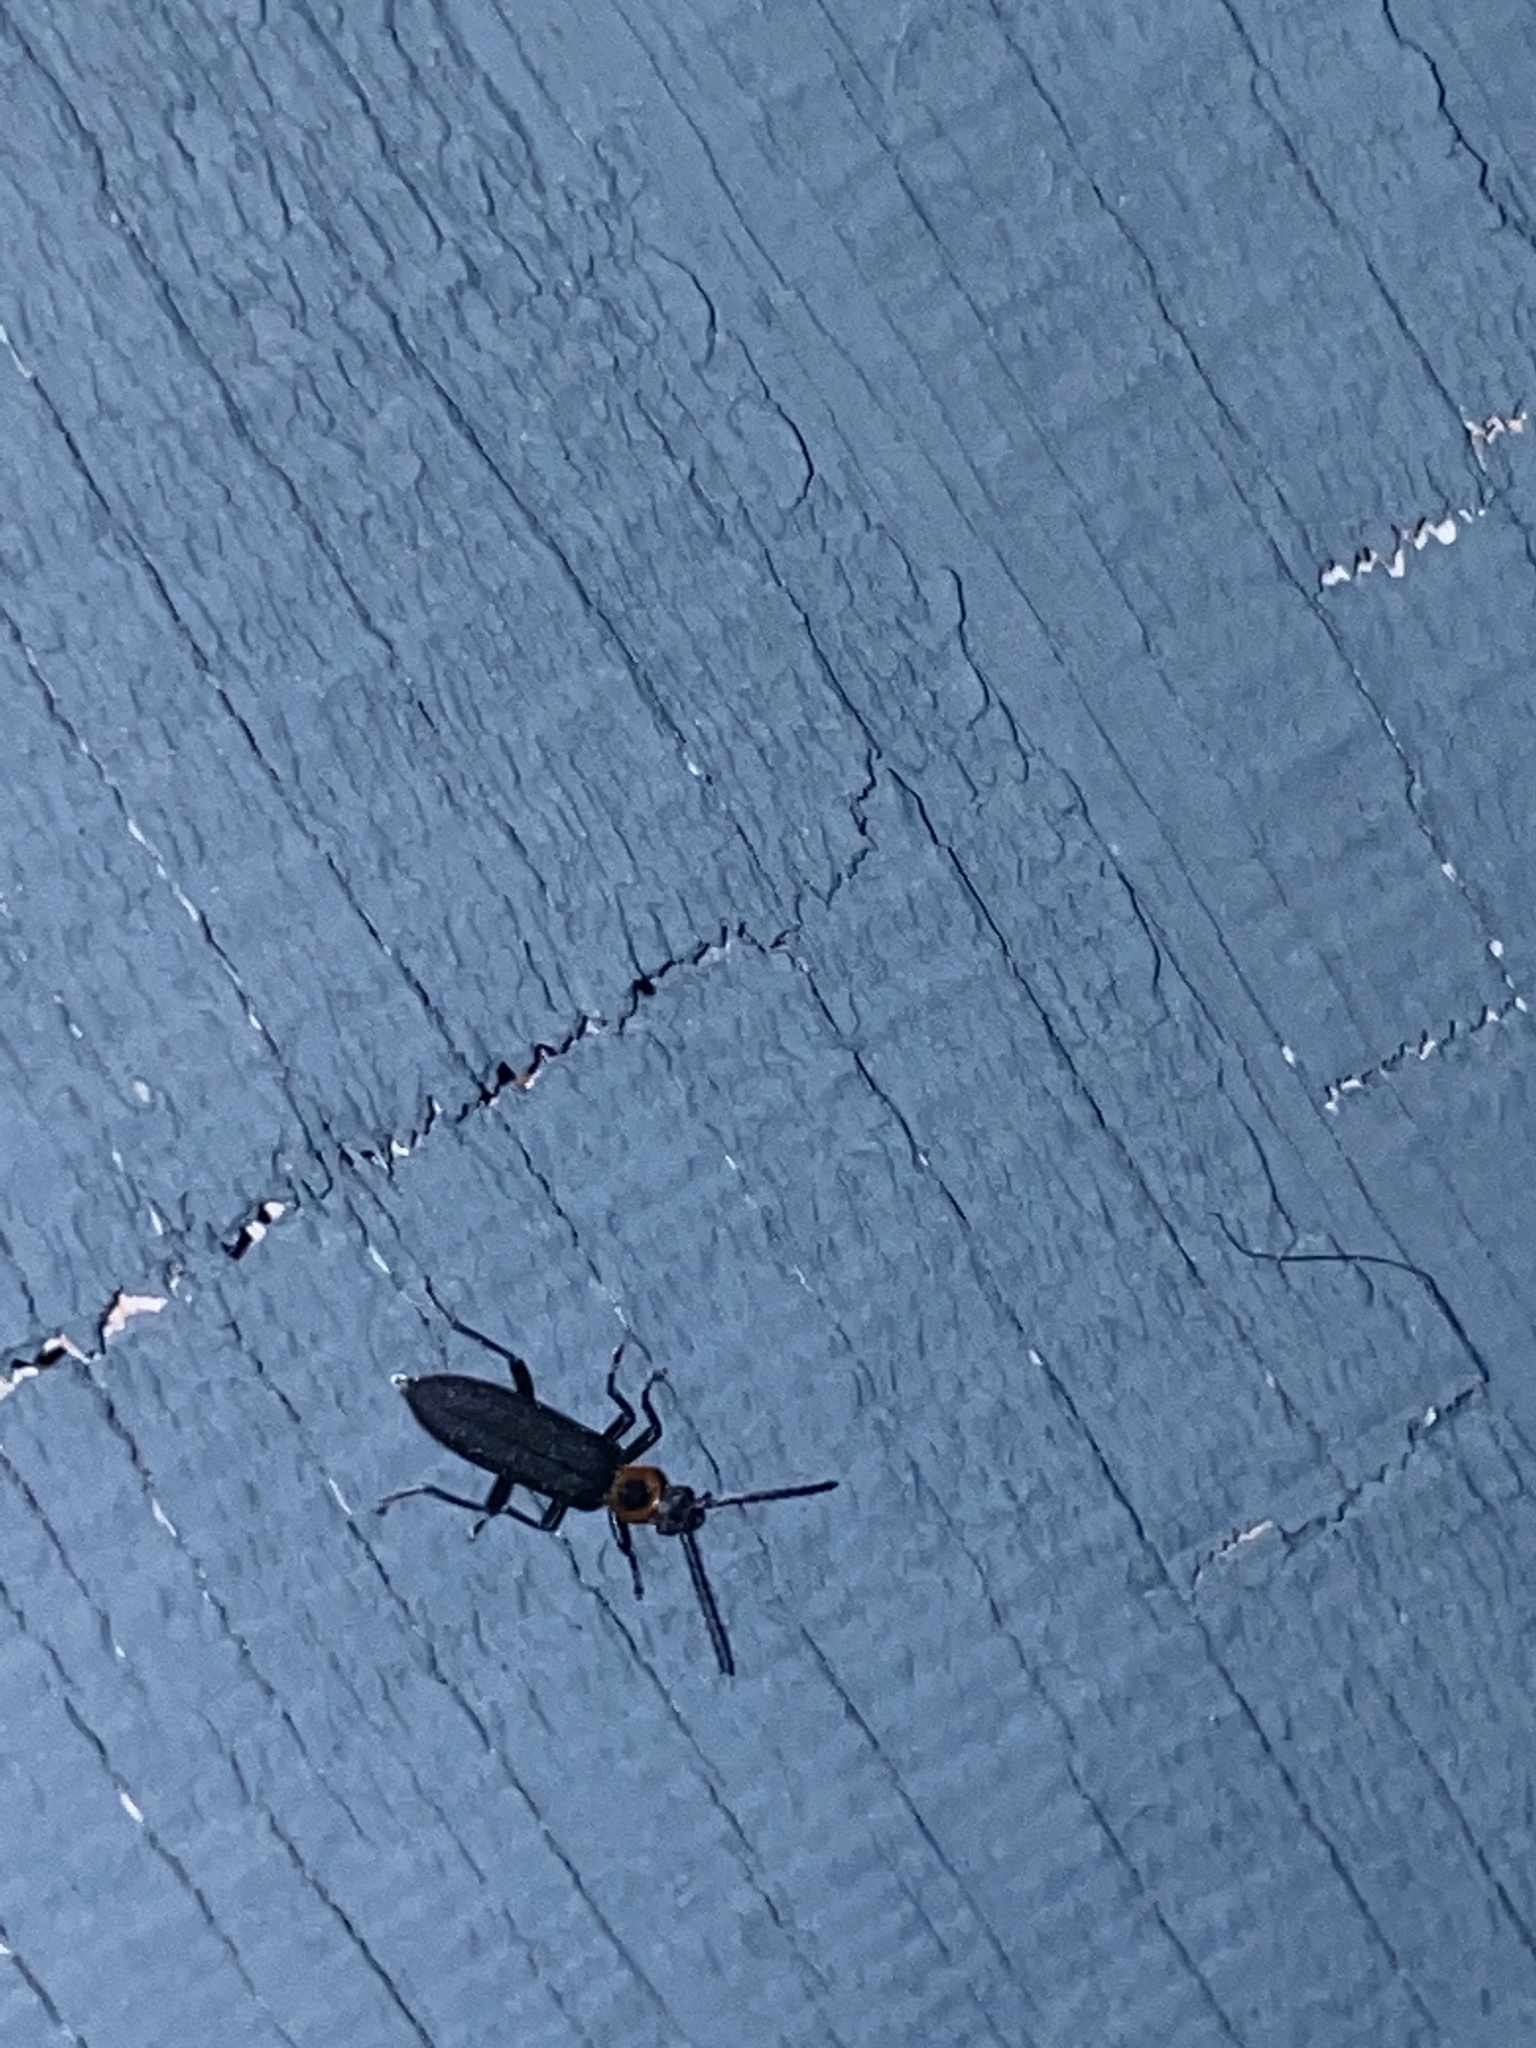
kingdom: Animalia
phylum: Arthropoda
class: Insecta
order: Coleoptera
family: Oedemeridae
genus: Ischnomera
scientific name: Ischnomera
